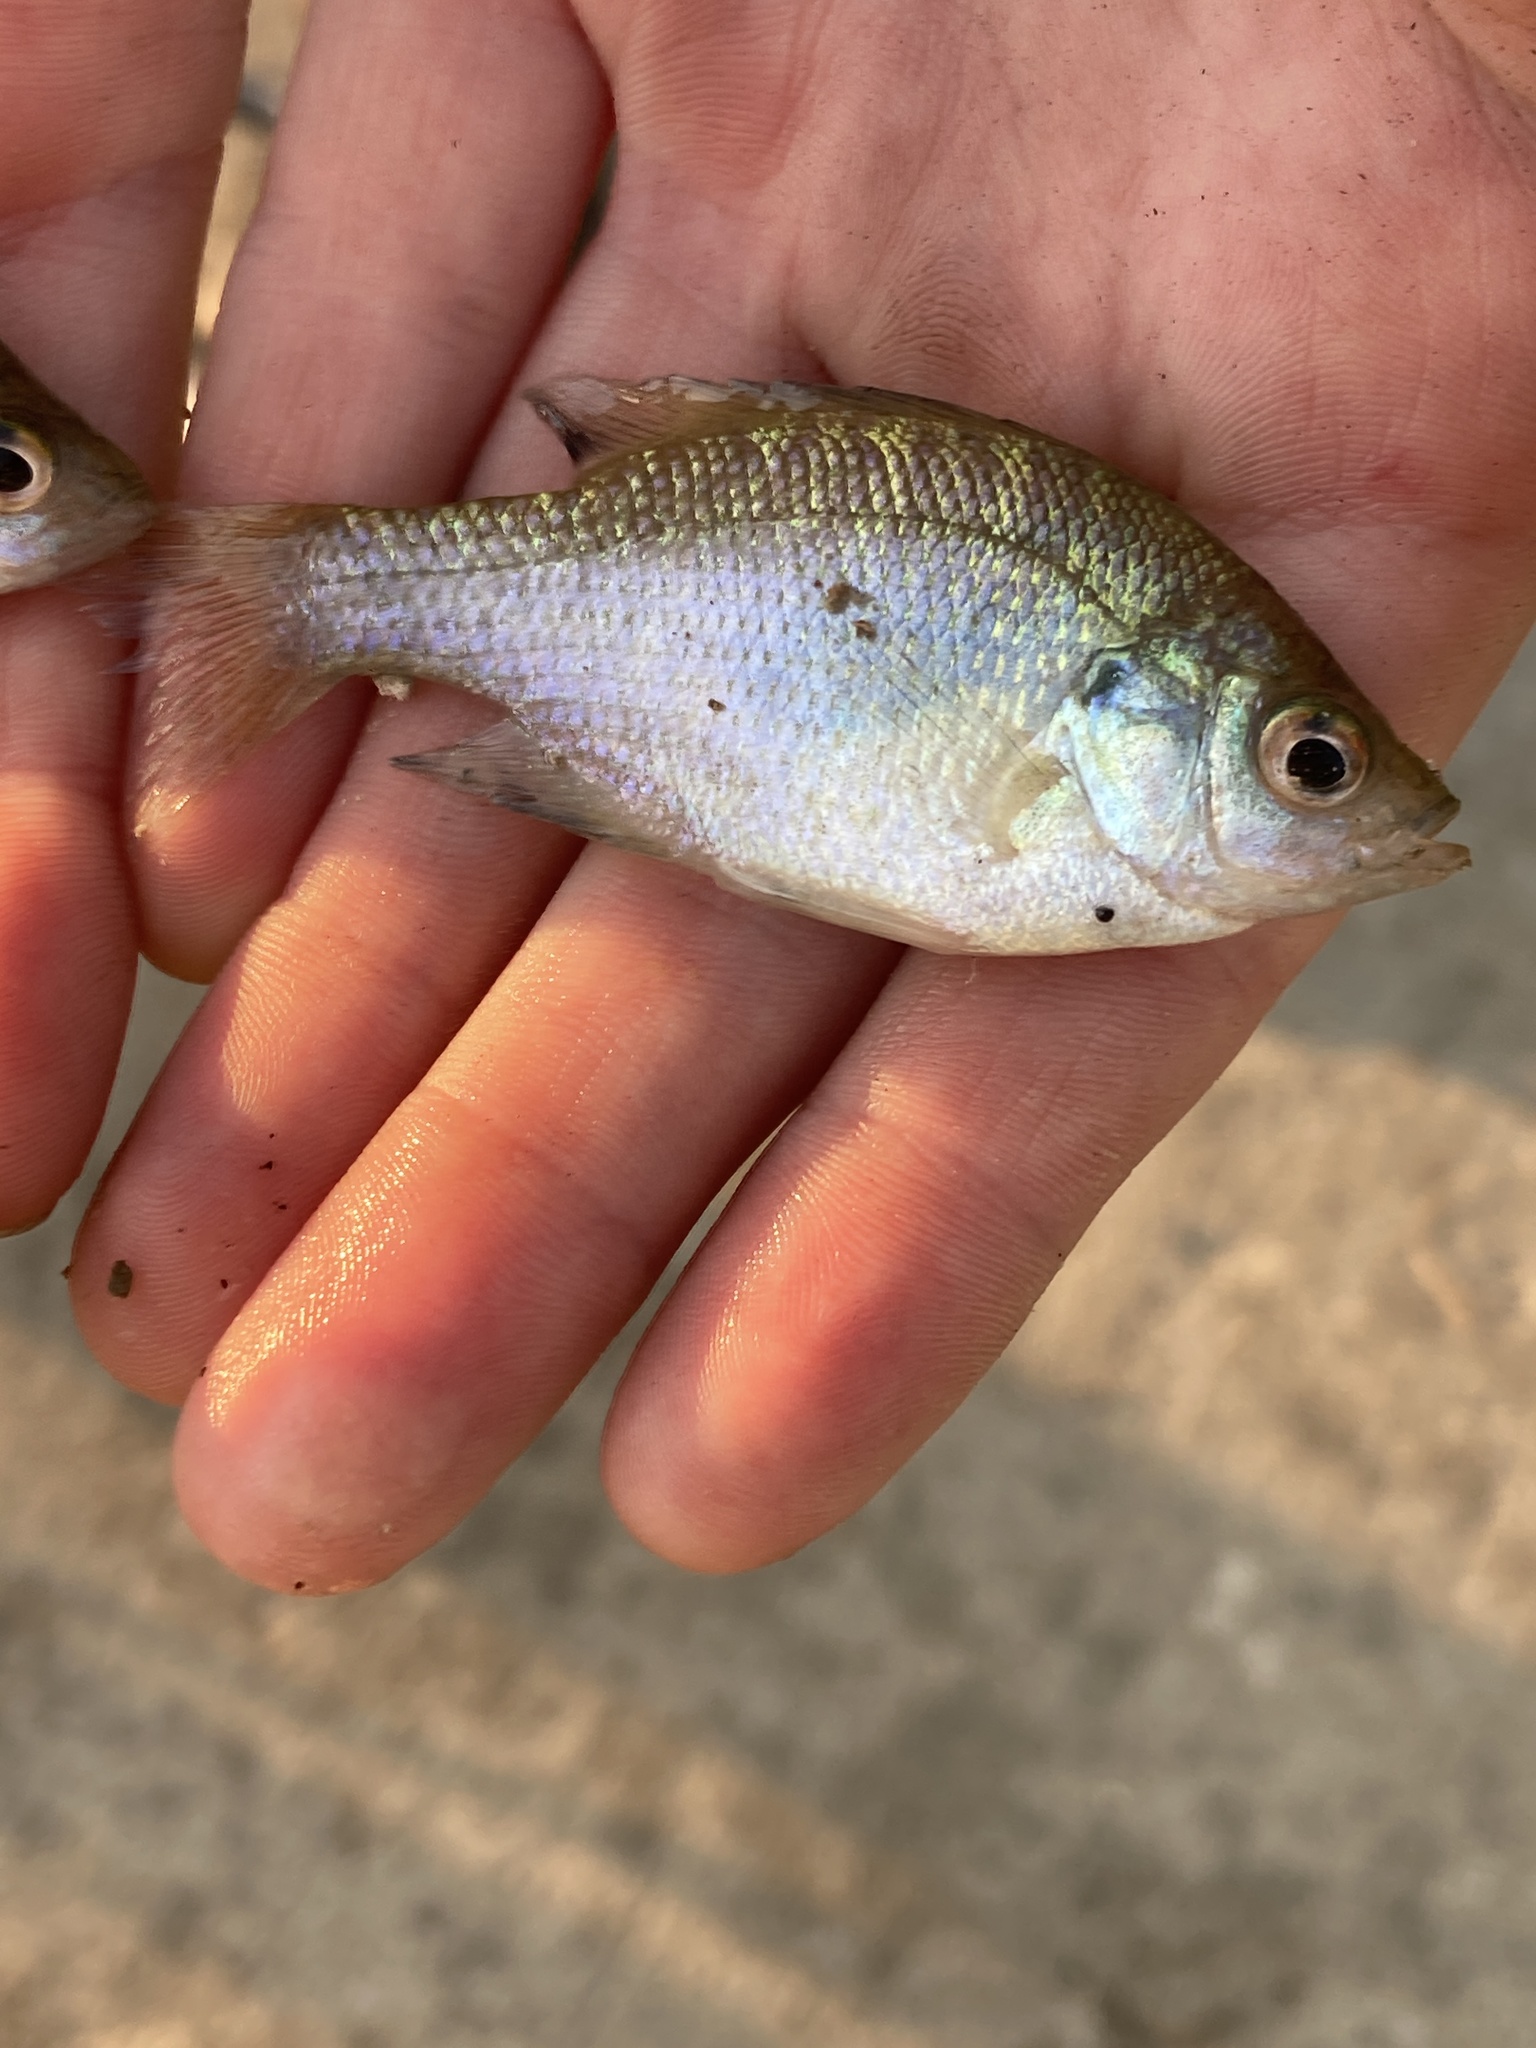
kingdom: Animalia
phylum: Chordata
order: Perciformes
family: Centrarchidae
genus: Lepomis
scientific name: Lepomis macrochirus
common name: Bluegill
